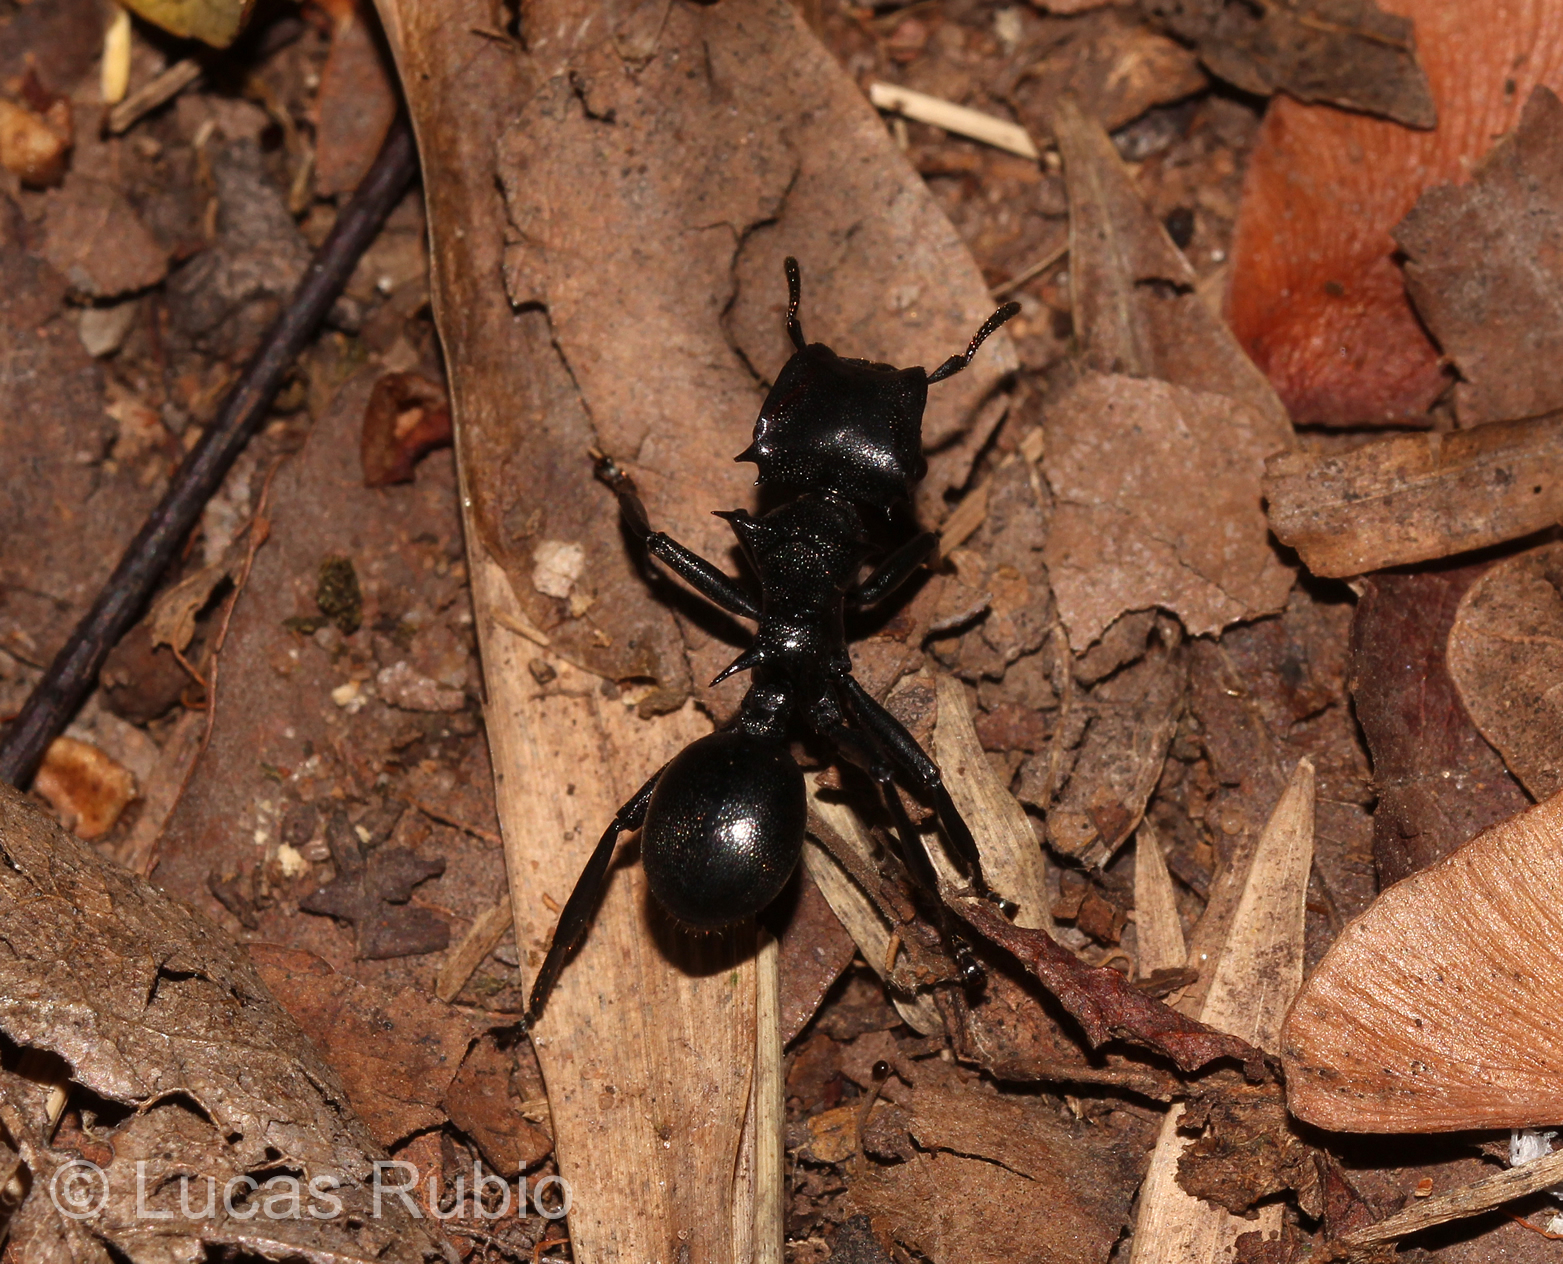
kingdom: Animalia
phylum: Arthropoda
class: Insecta
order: Hymenoptera
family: Formicidae
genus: Cephalotes
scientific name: Cephalotes atratus
